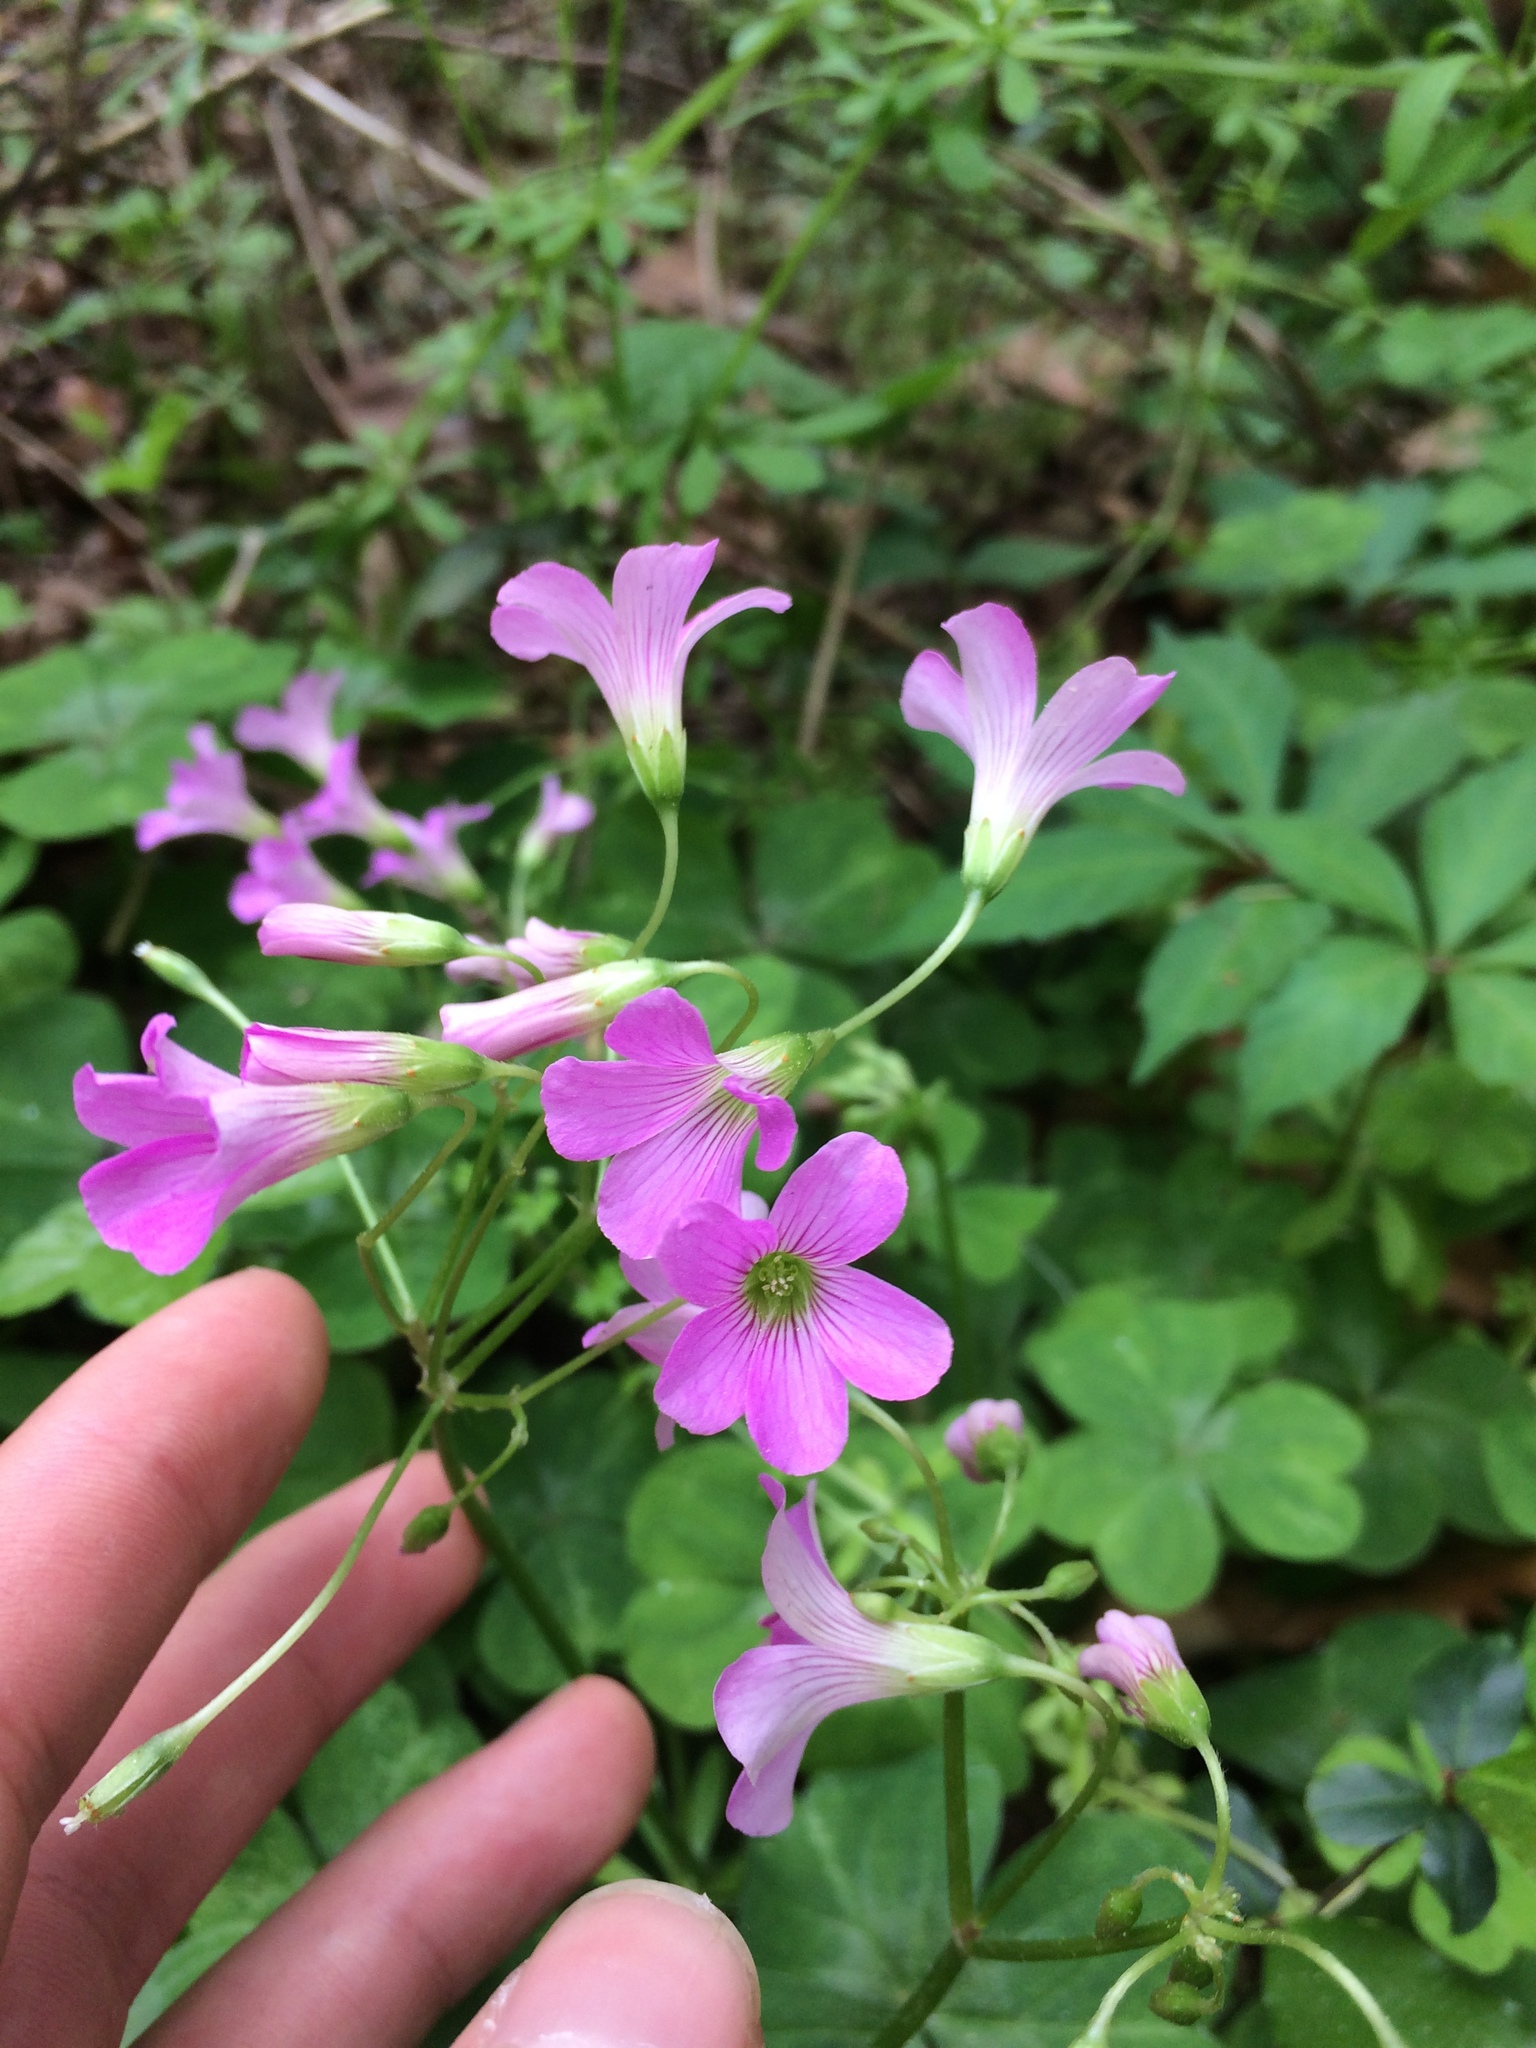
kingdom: Plantae
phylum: Tracheophyta
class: Magnoliopsida
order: Oxalidales
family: Oxalidaceae
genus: Oxalis
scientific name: Oxalis debilis
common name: Large-flowered pink-sorrel
